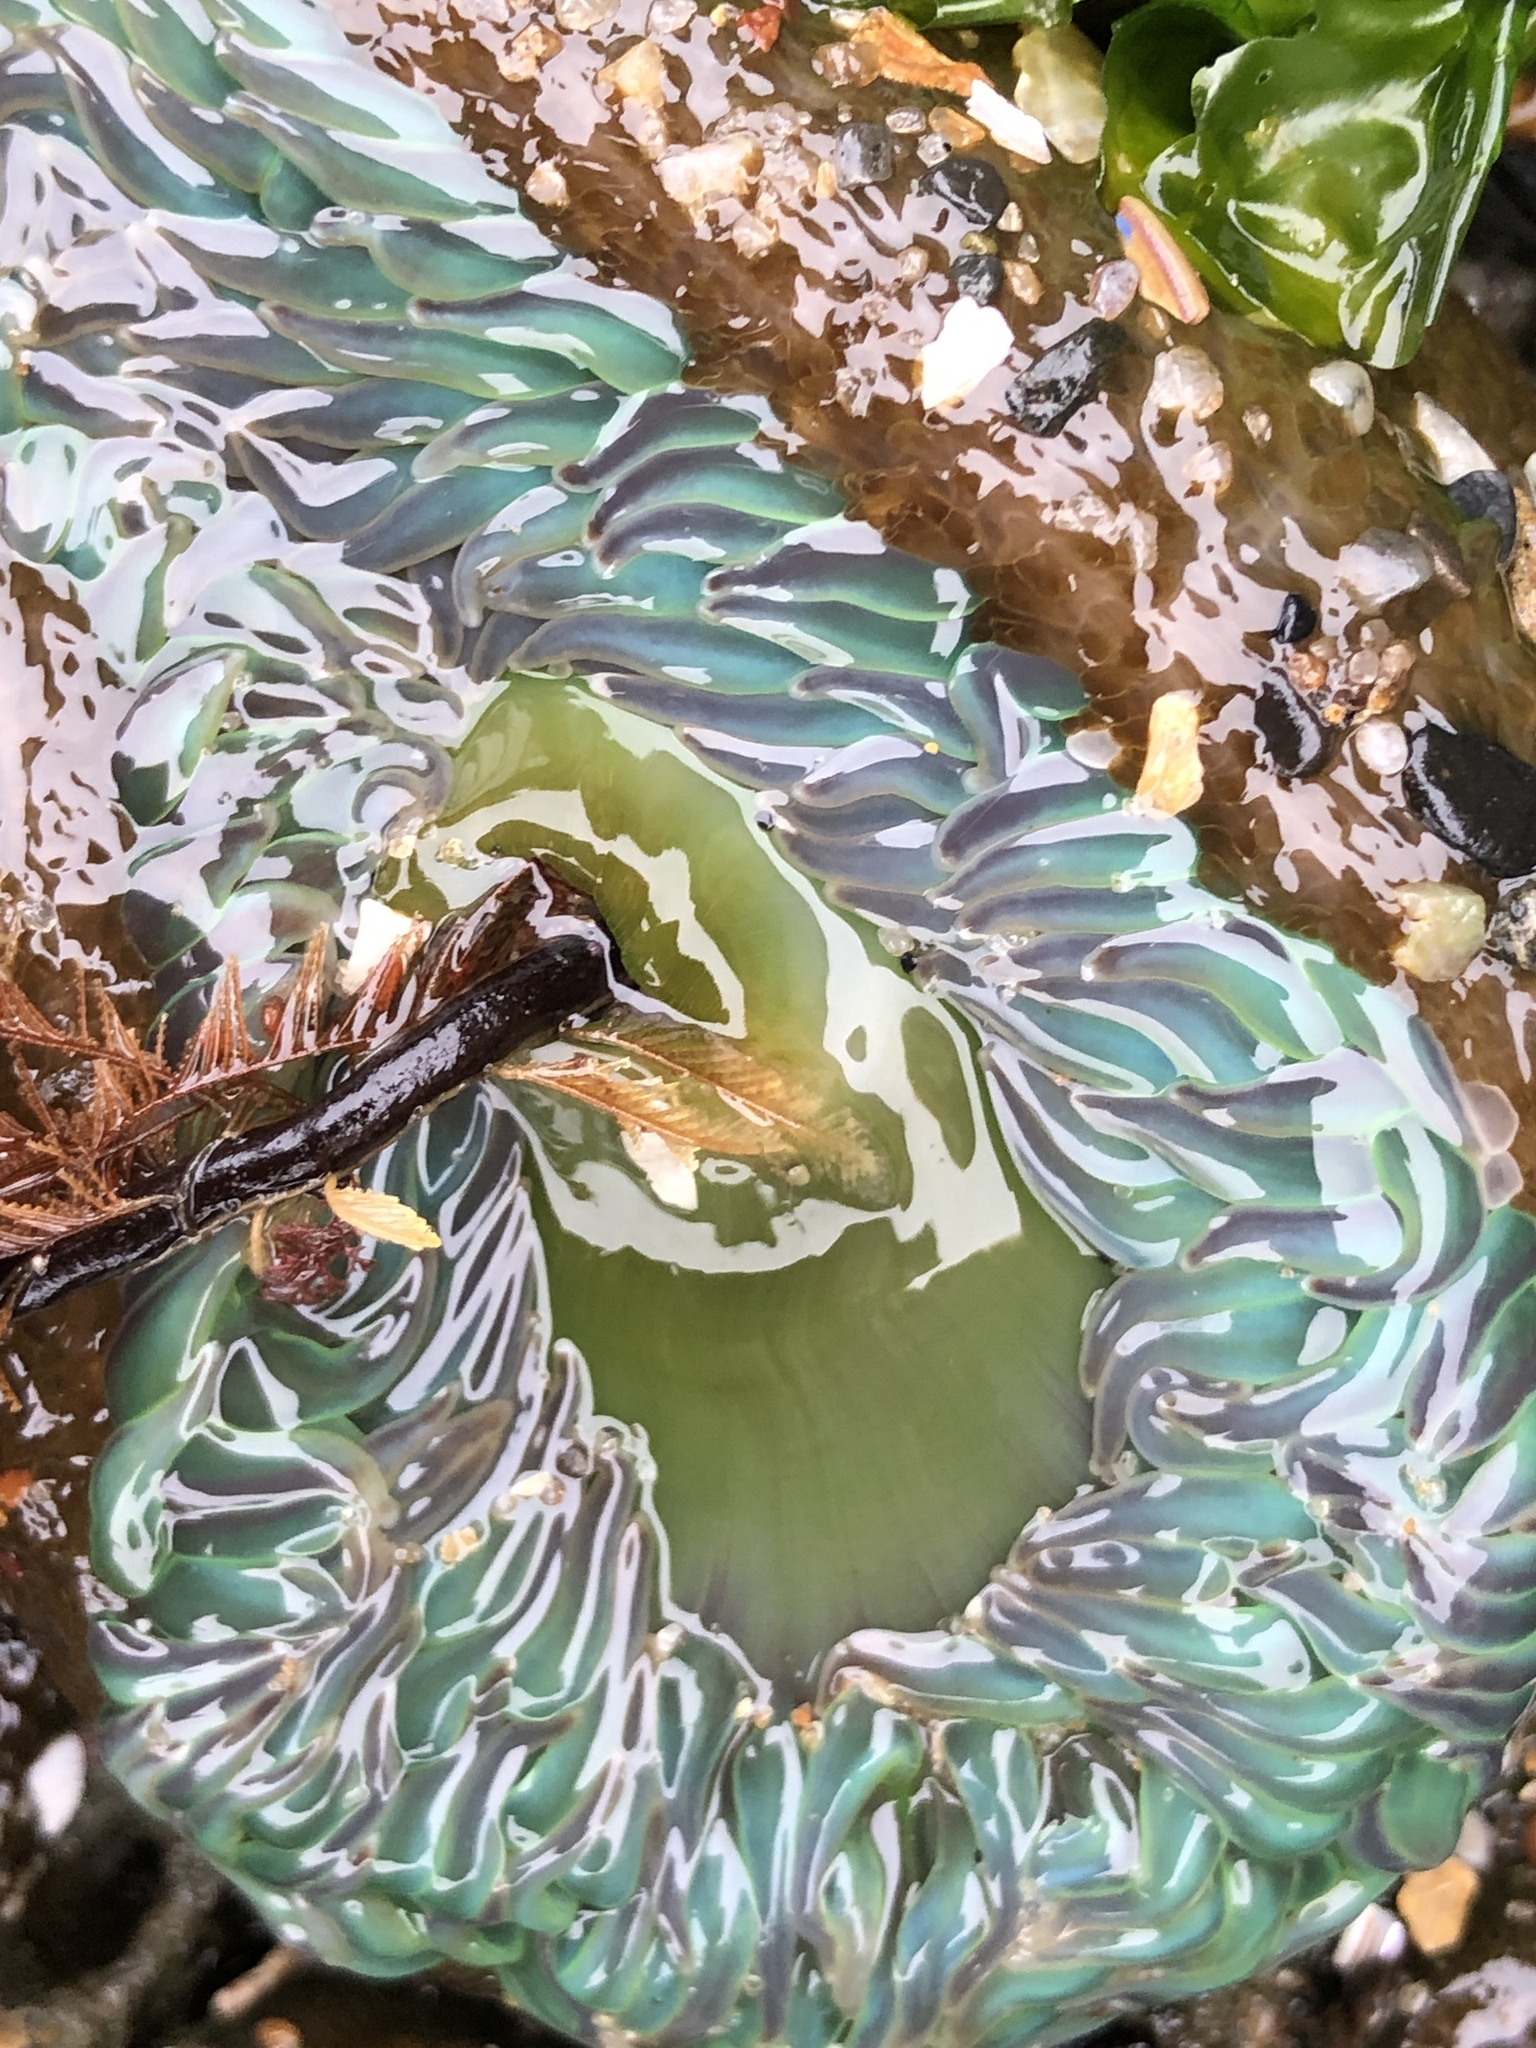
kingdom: Animalia
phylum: Cnidaria
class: Anthozoa
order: Actiniaria
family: Actiniidae
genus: Anthopleura
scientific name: Anthopleura xanthogrammica
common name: Giant green anemone
